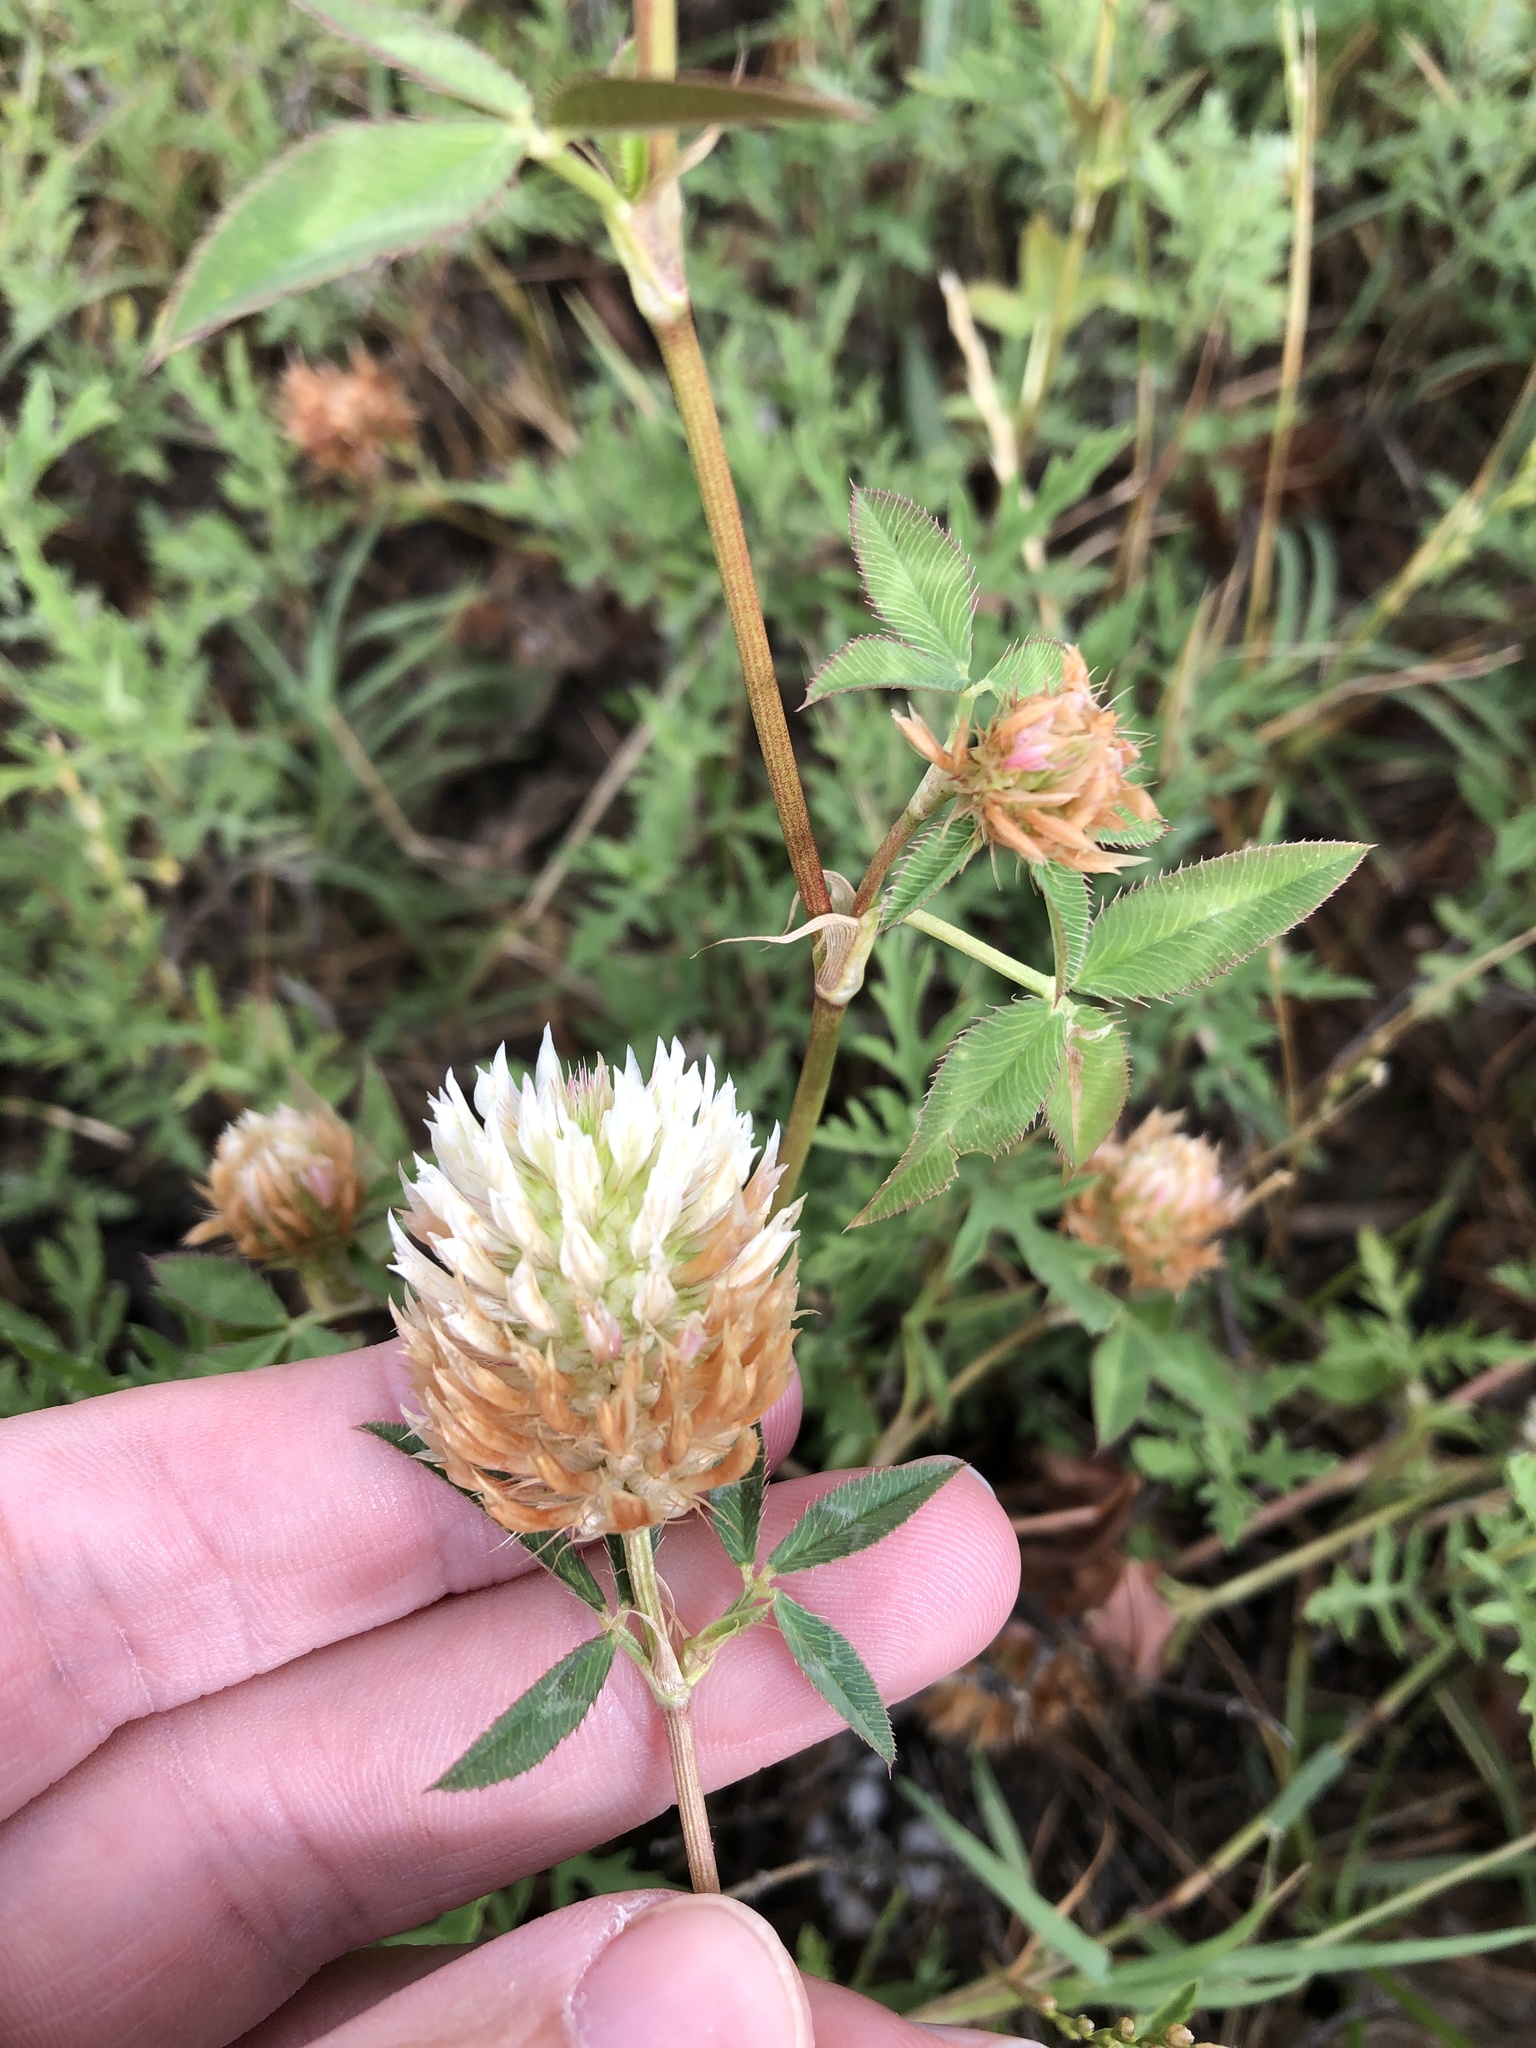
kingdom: Plantae
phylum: Tracheophyta
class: Magnoliopsida
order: Fabales
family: Fabaceae
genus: Trifolium
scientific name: Trifolium vesiculosum
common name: Arrowleaf clover
